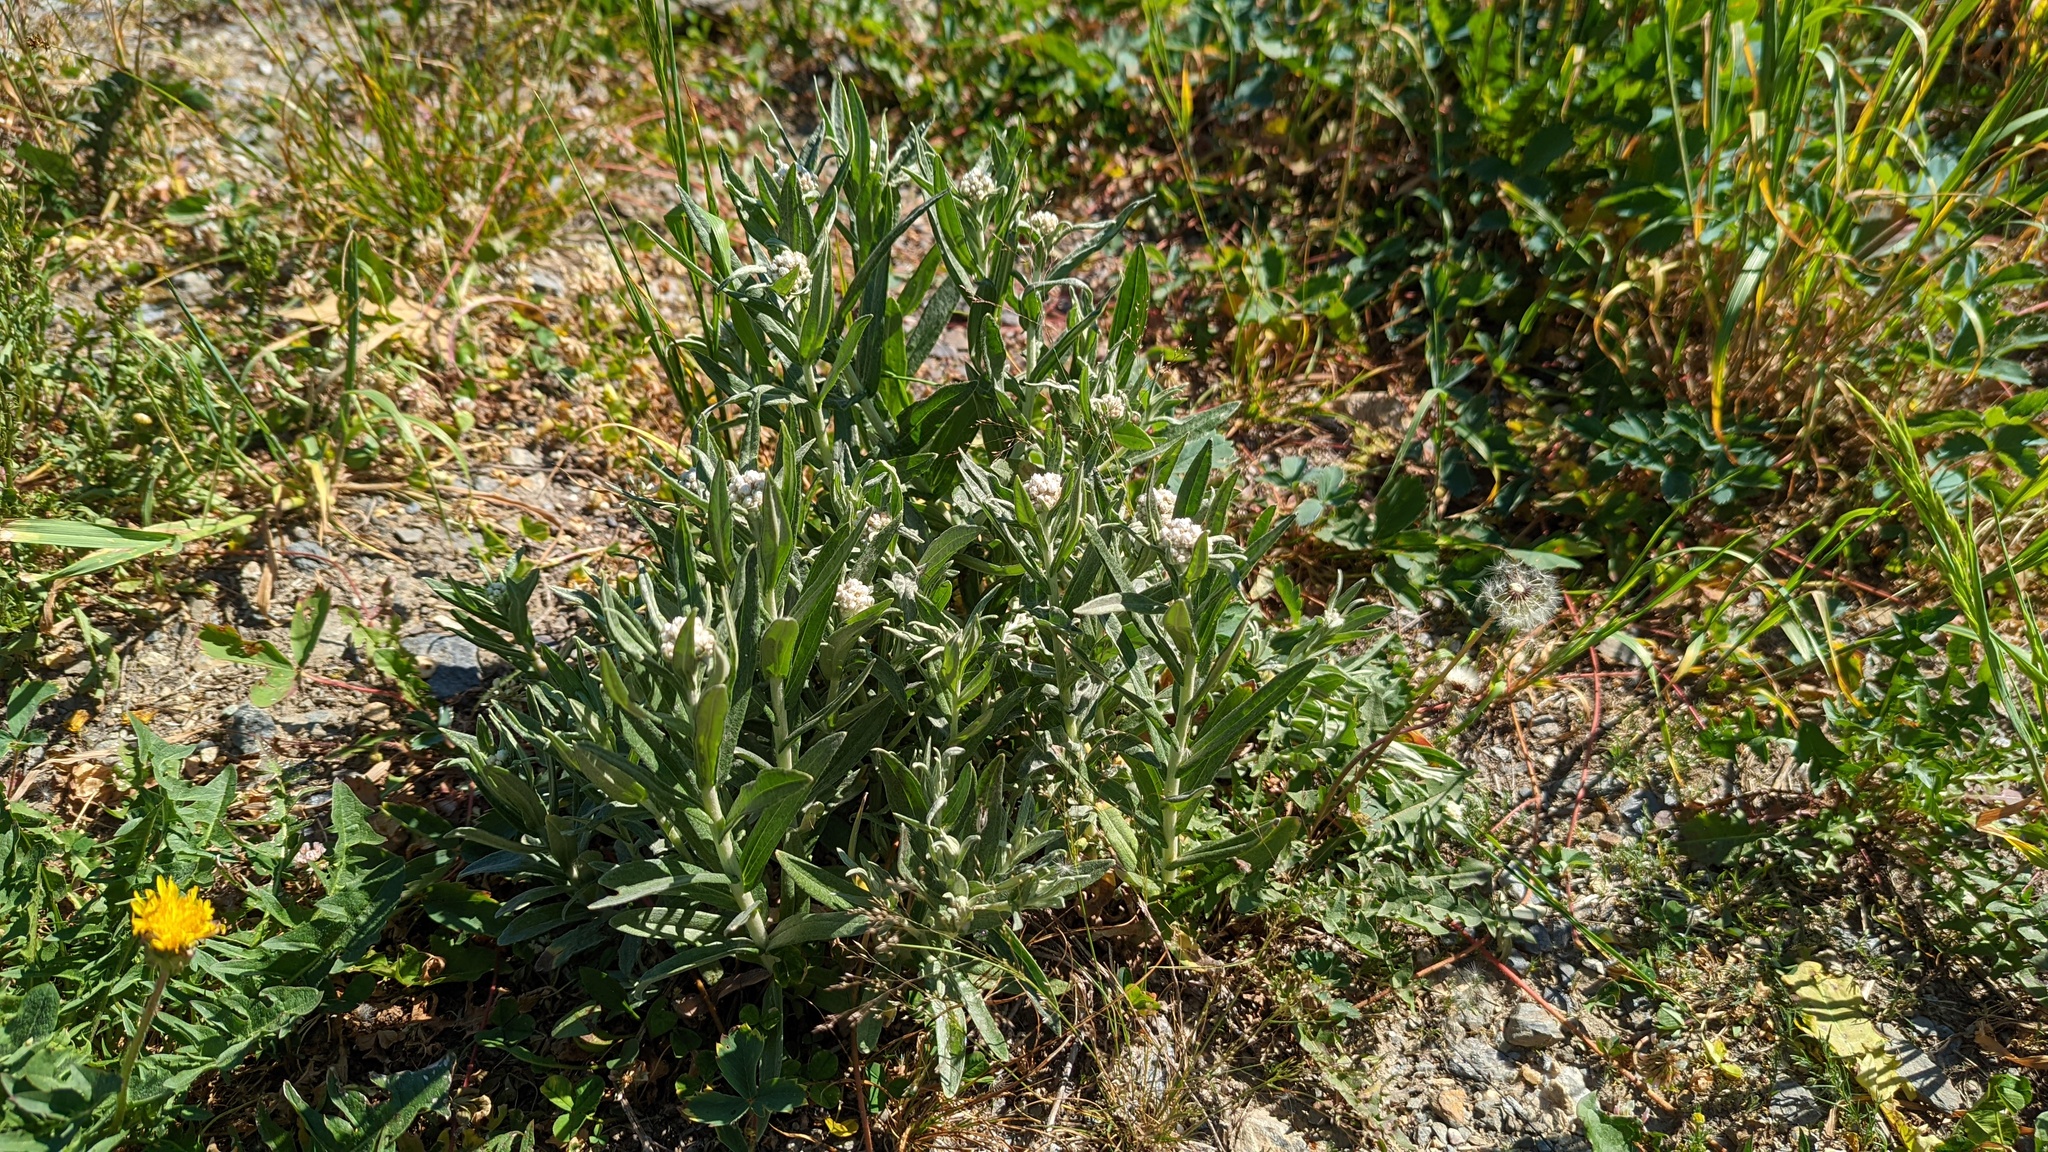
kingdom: Plantae
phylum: Tracheophyta
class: Magnoliopsida
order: Asterales
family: Asteraceae
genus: Anaphalis
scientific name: Anaphalis margaritacea
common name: Pearly everlasting
